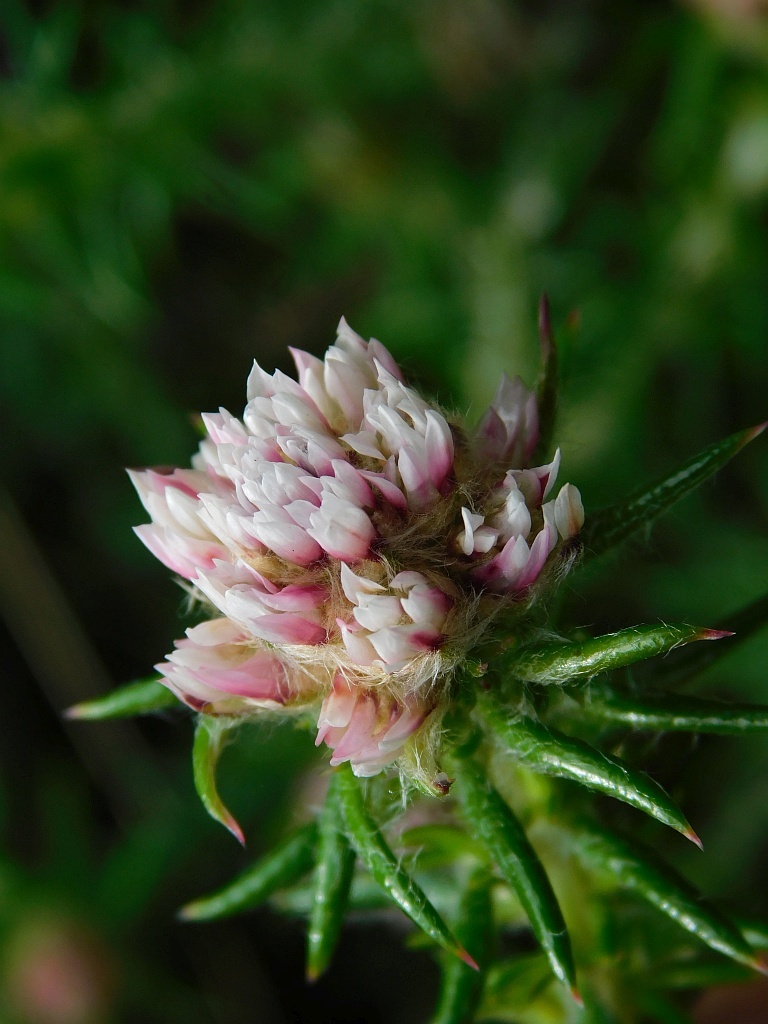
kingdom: Plantae
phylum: Tracheophyta
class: Magnoliopsida
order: Asterales
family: Asteraceae
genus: Metalasia
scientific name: Metalasia inversa
